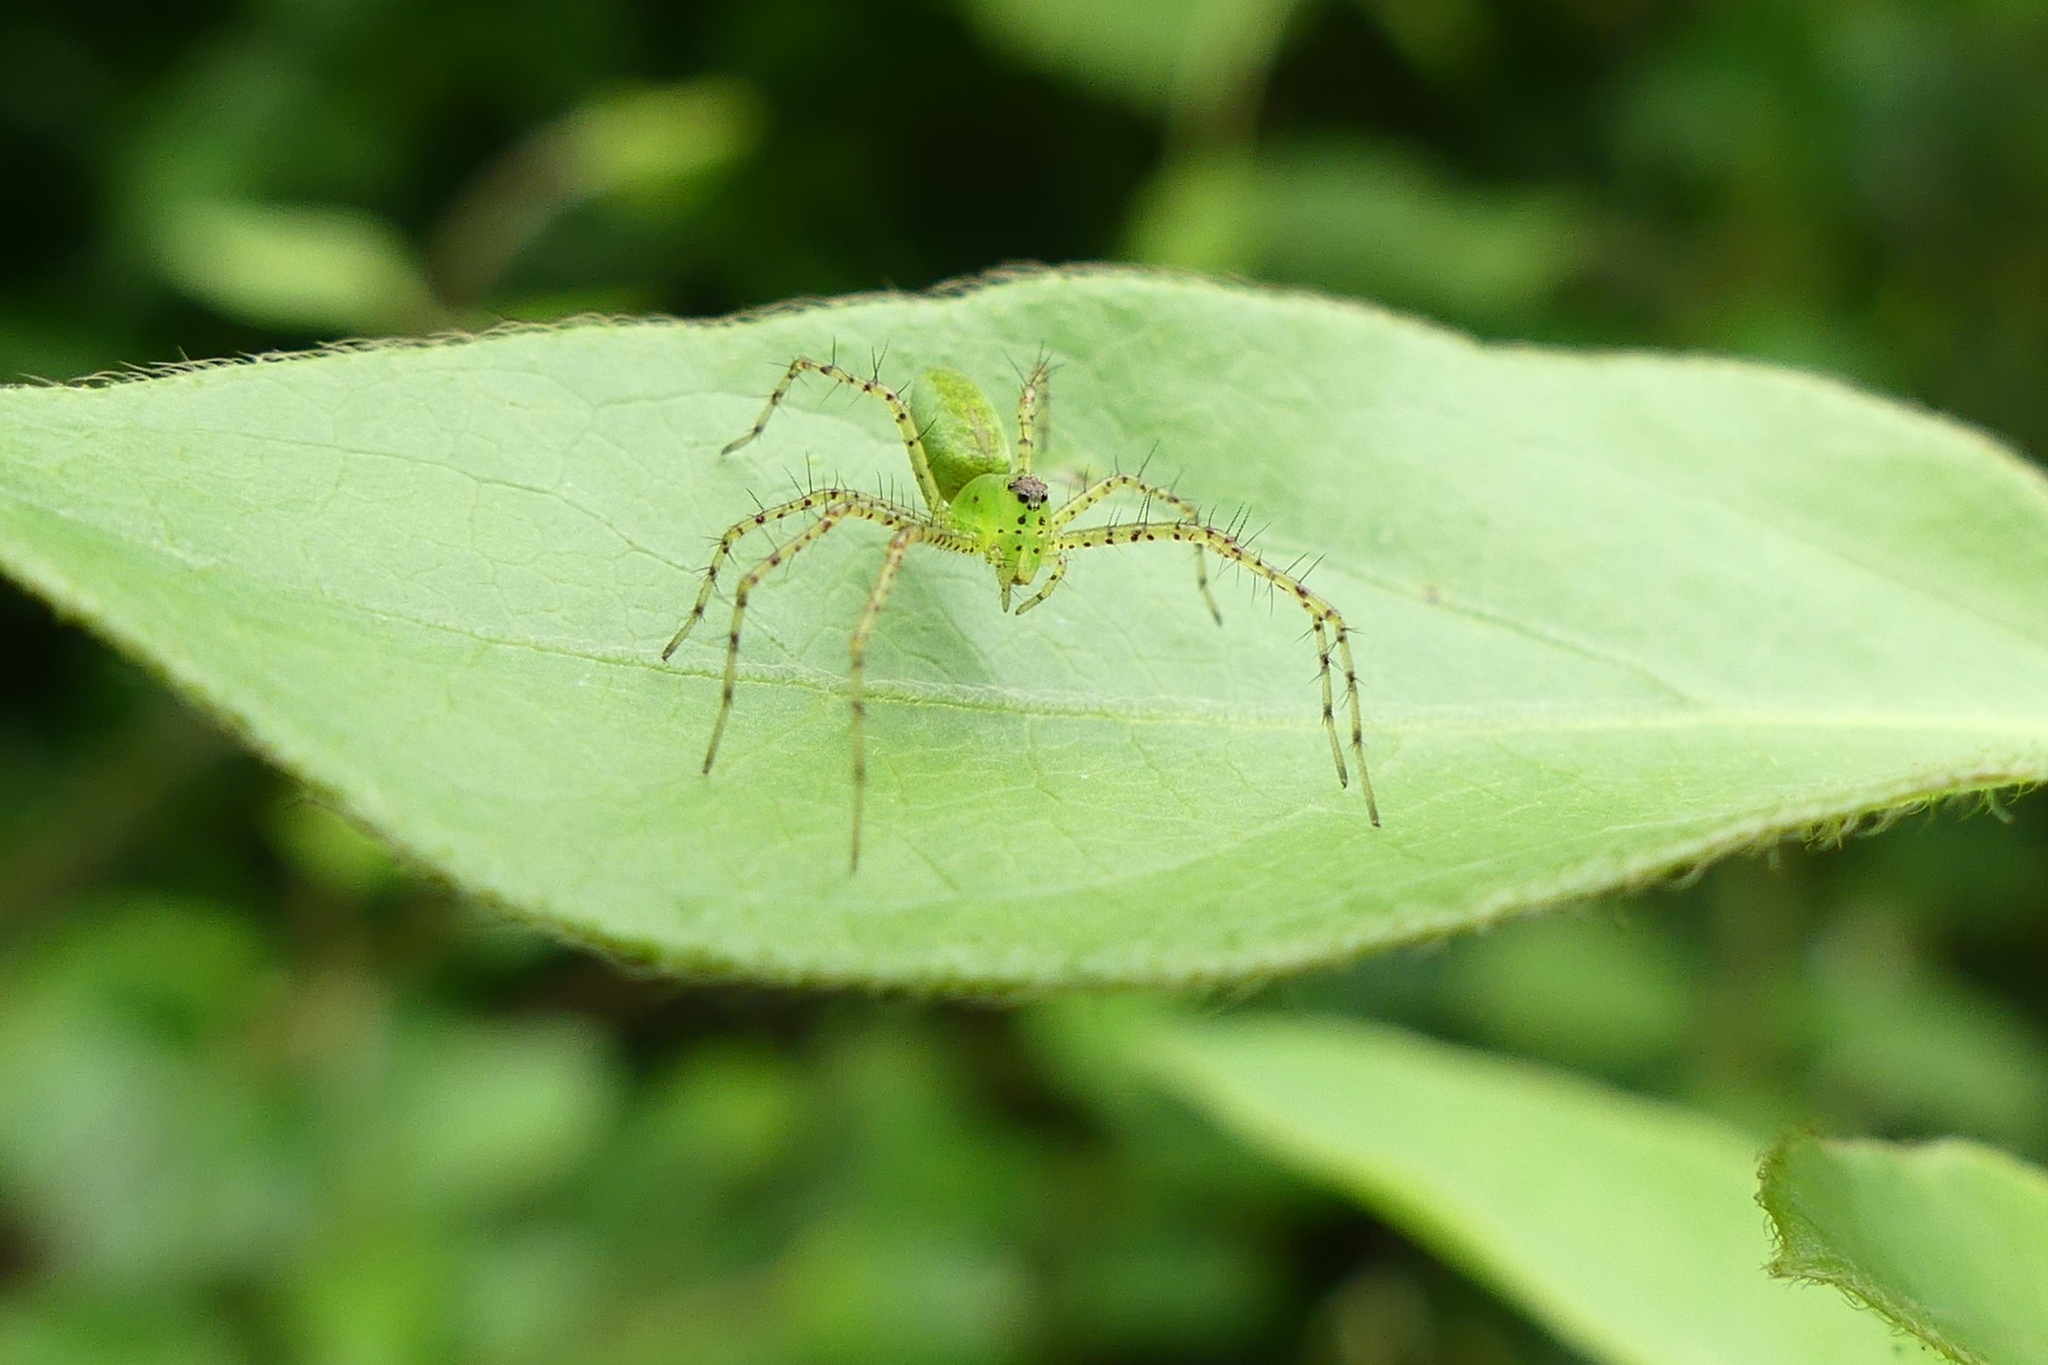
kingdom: Animalia
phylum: Arthropoda
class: Arachnida
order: Araneae
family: Oxyopidae
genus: Peucetia
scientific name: Peucetia viridans
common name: Lynx spiders
